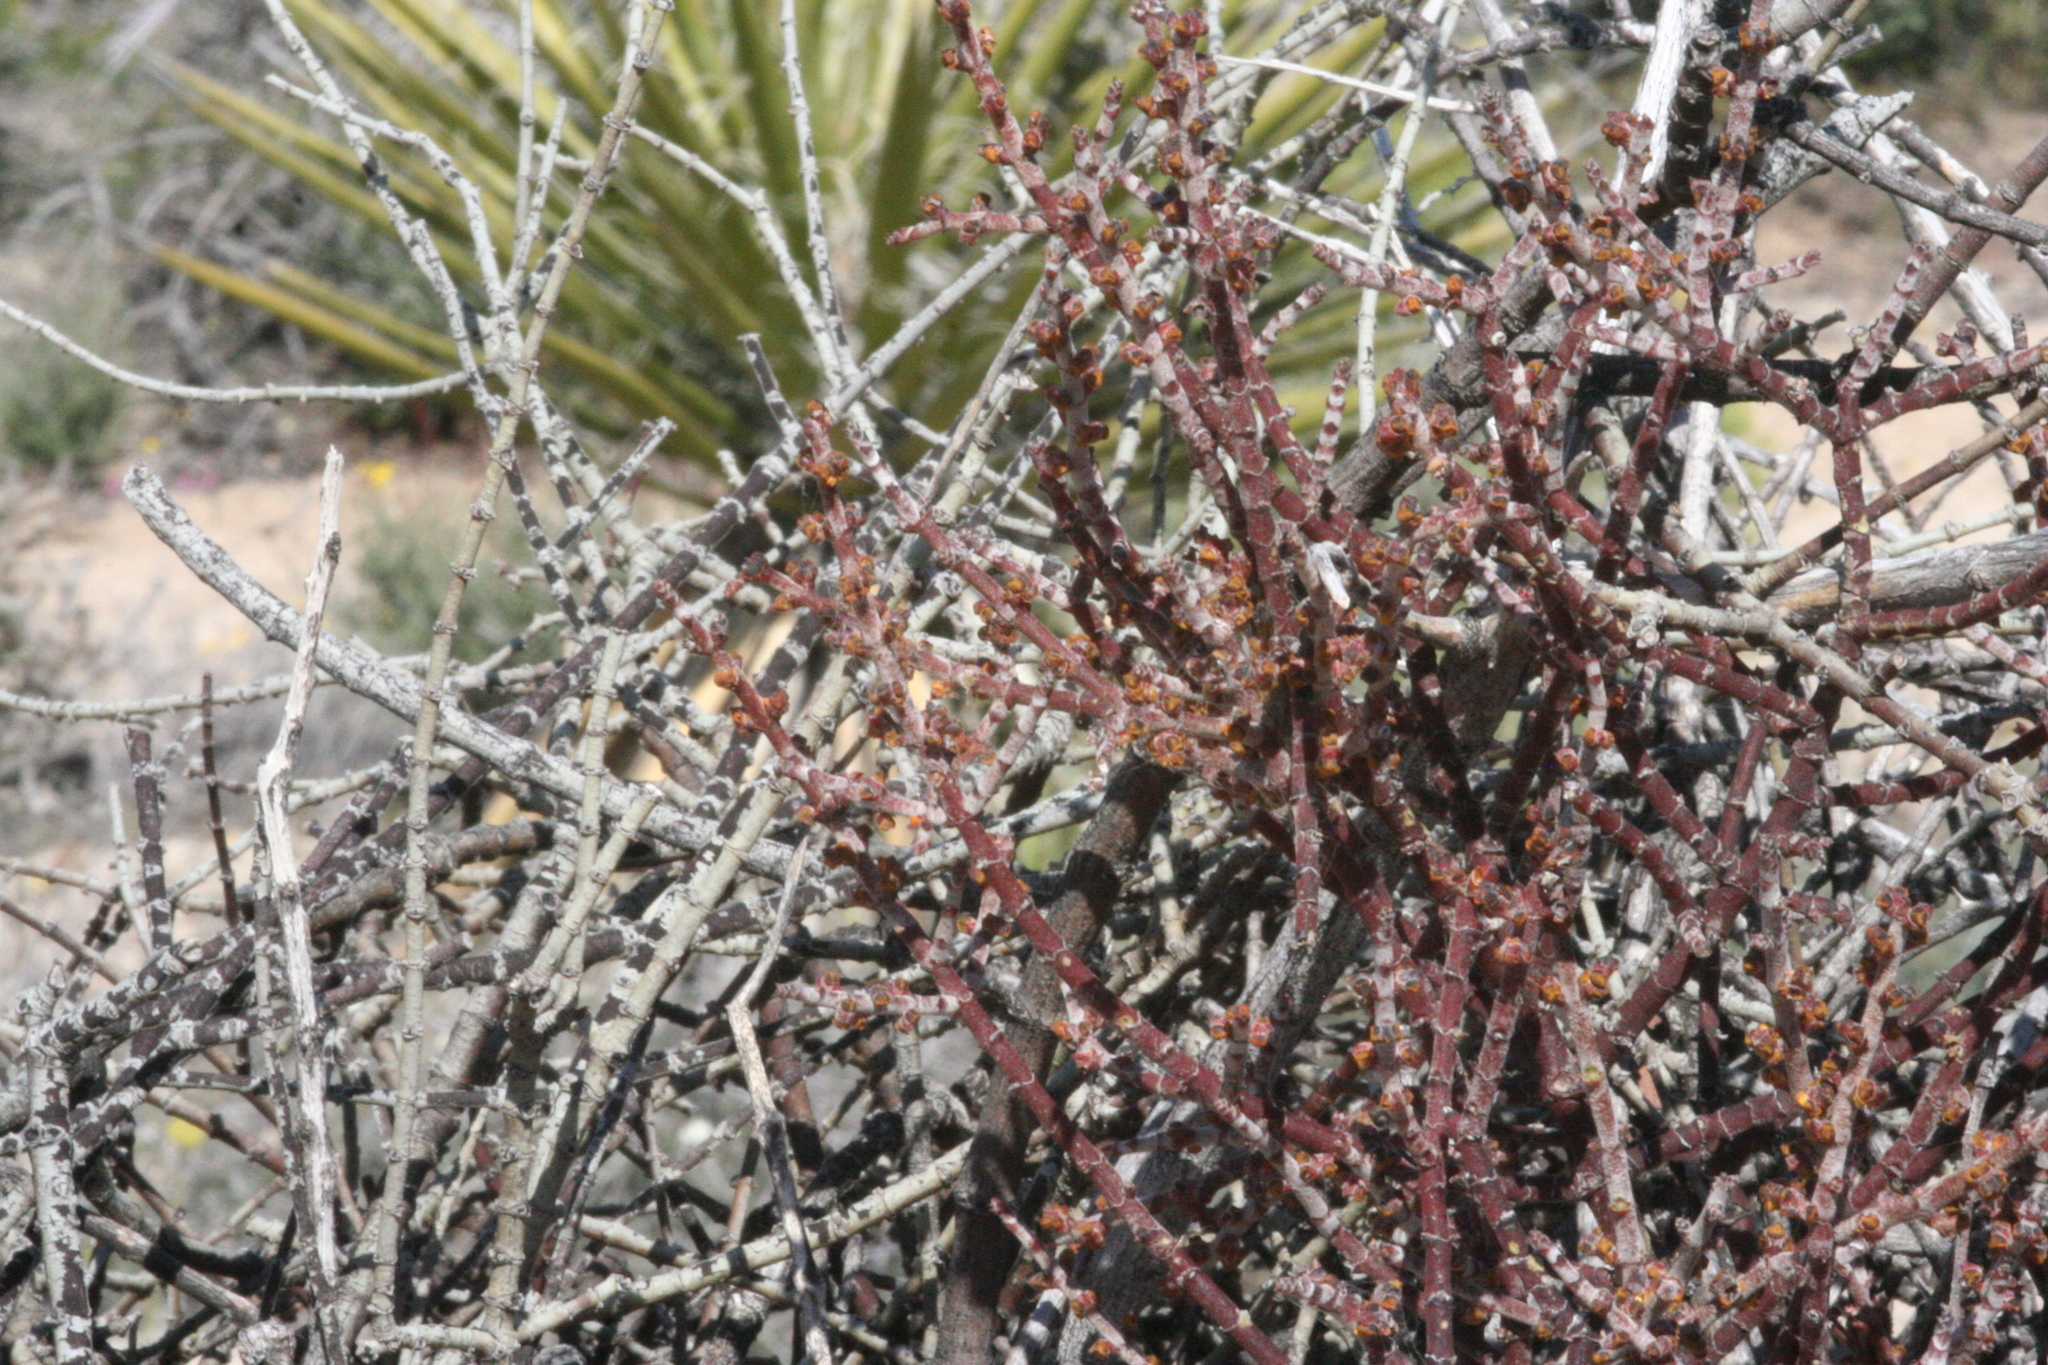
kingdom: Plantae
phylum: Tracheophyta
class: Magnoliopsida
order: Santalales
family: Viscaceae
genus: Phoradendron
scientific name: Phoradendron californicum
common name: Acacia mistletoe
